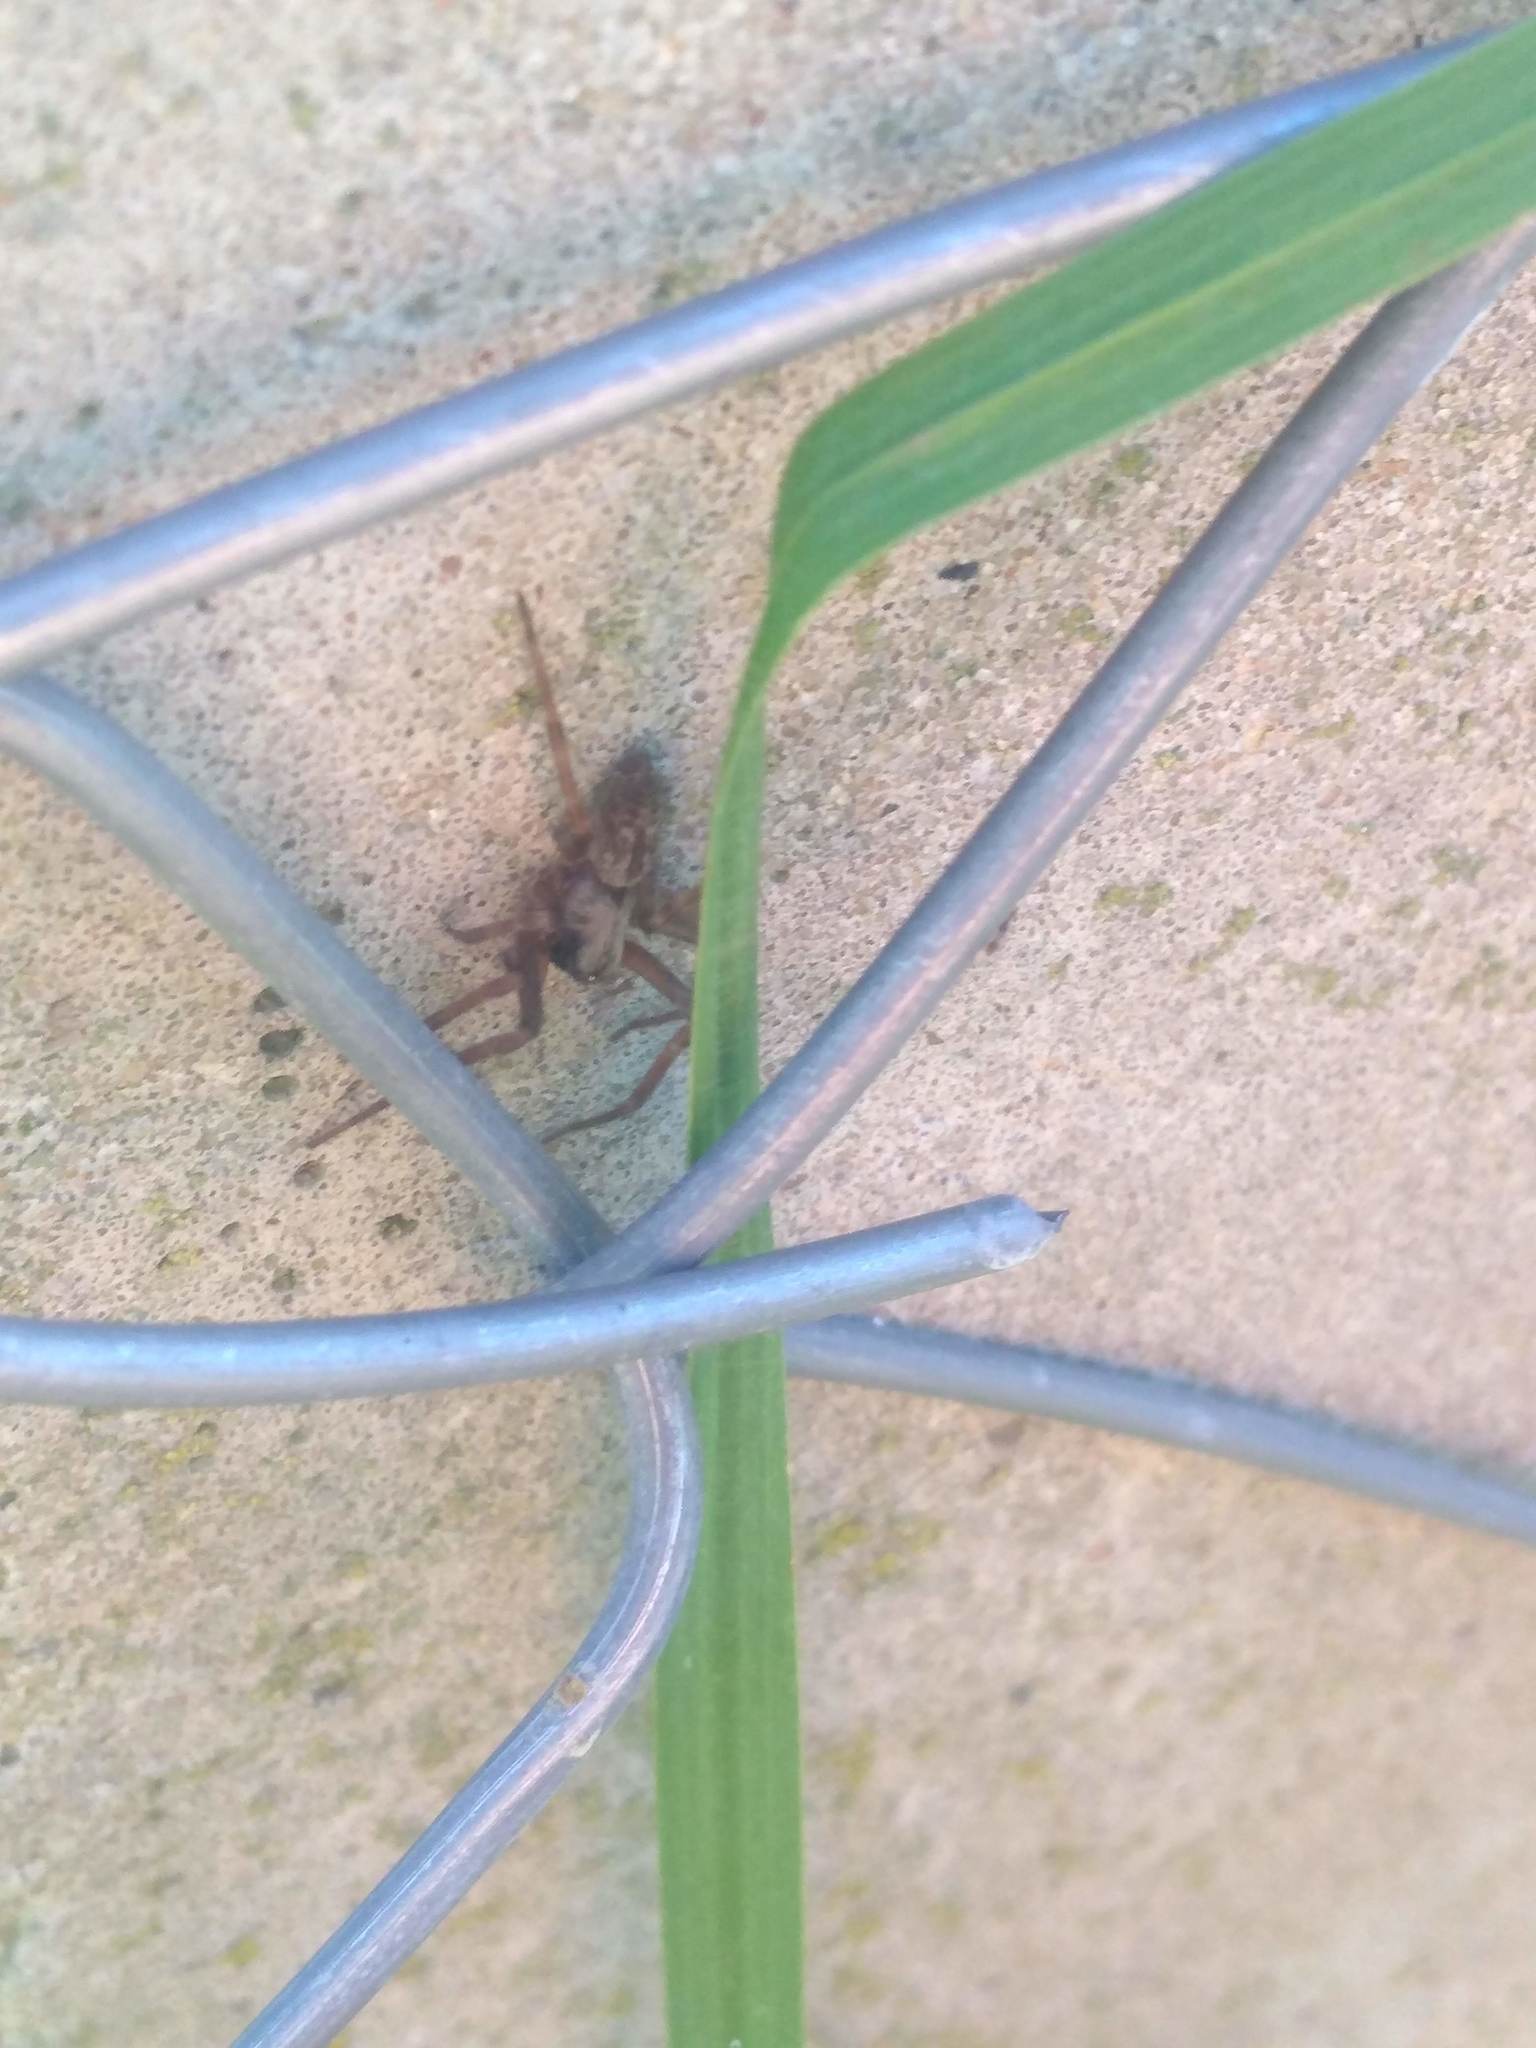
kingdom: Animalia
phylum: Arthropoda
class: Arachnida
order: Araneae
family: Desidae
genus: Badumna
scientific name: Badumna longinqua
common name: Gray house spider
